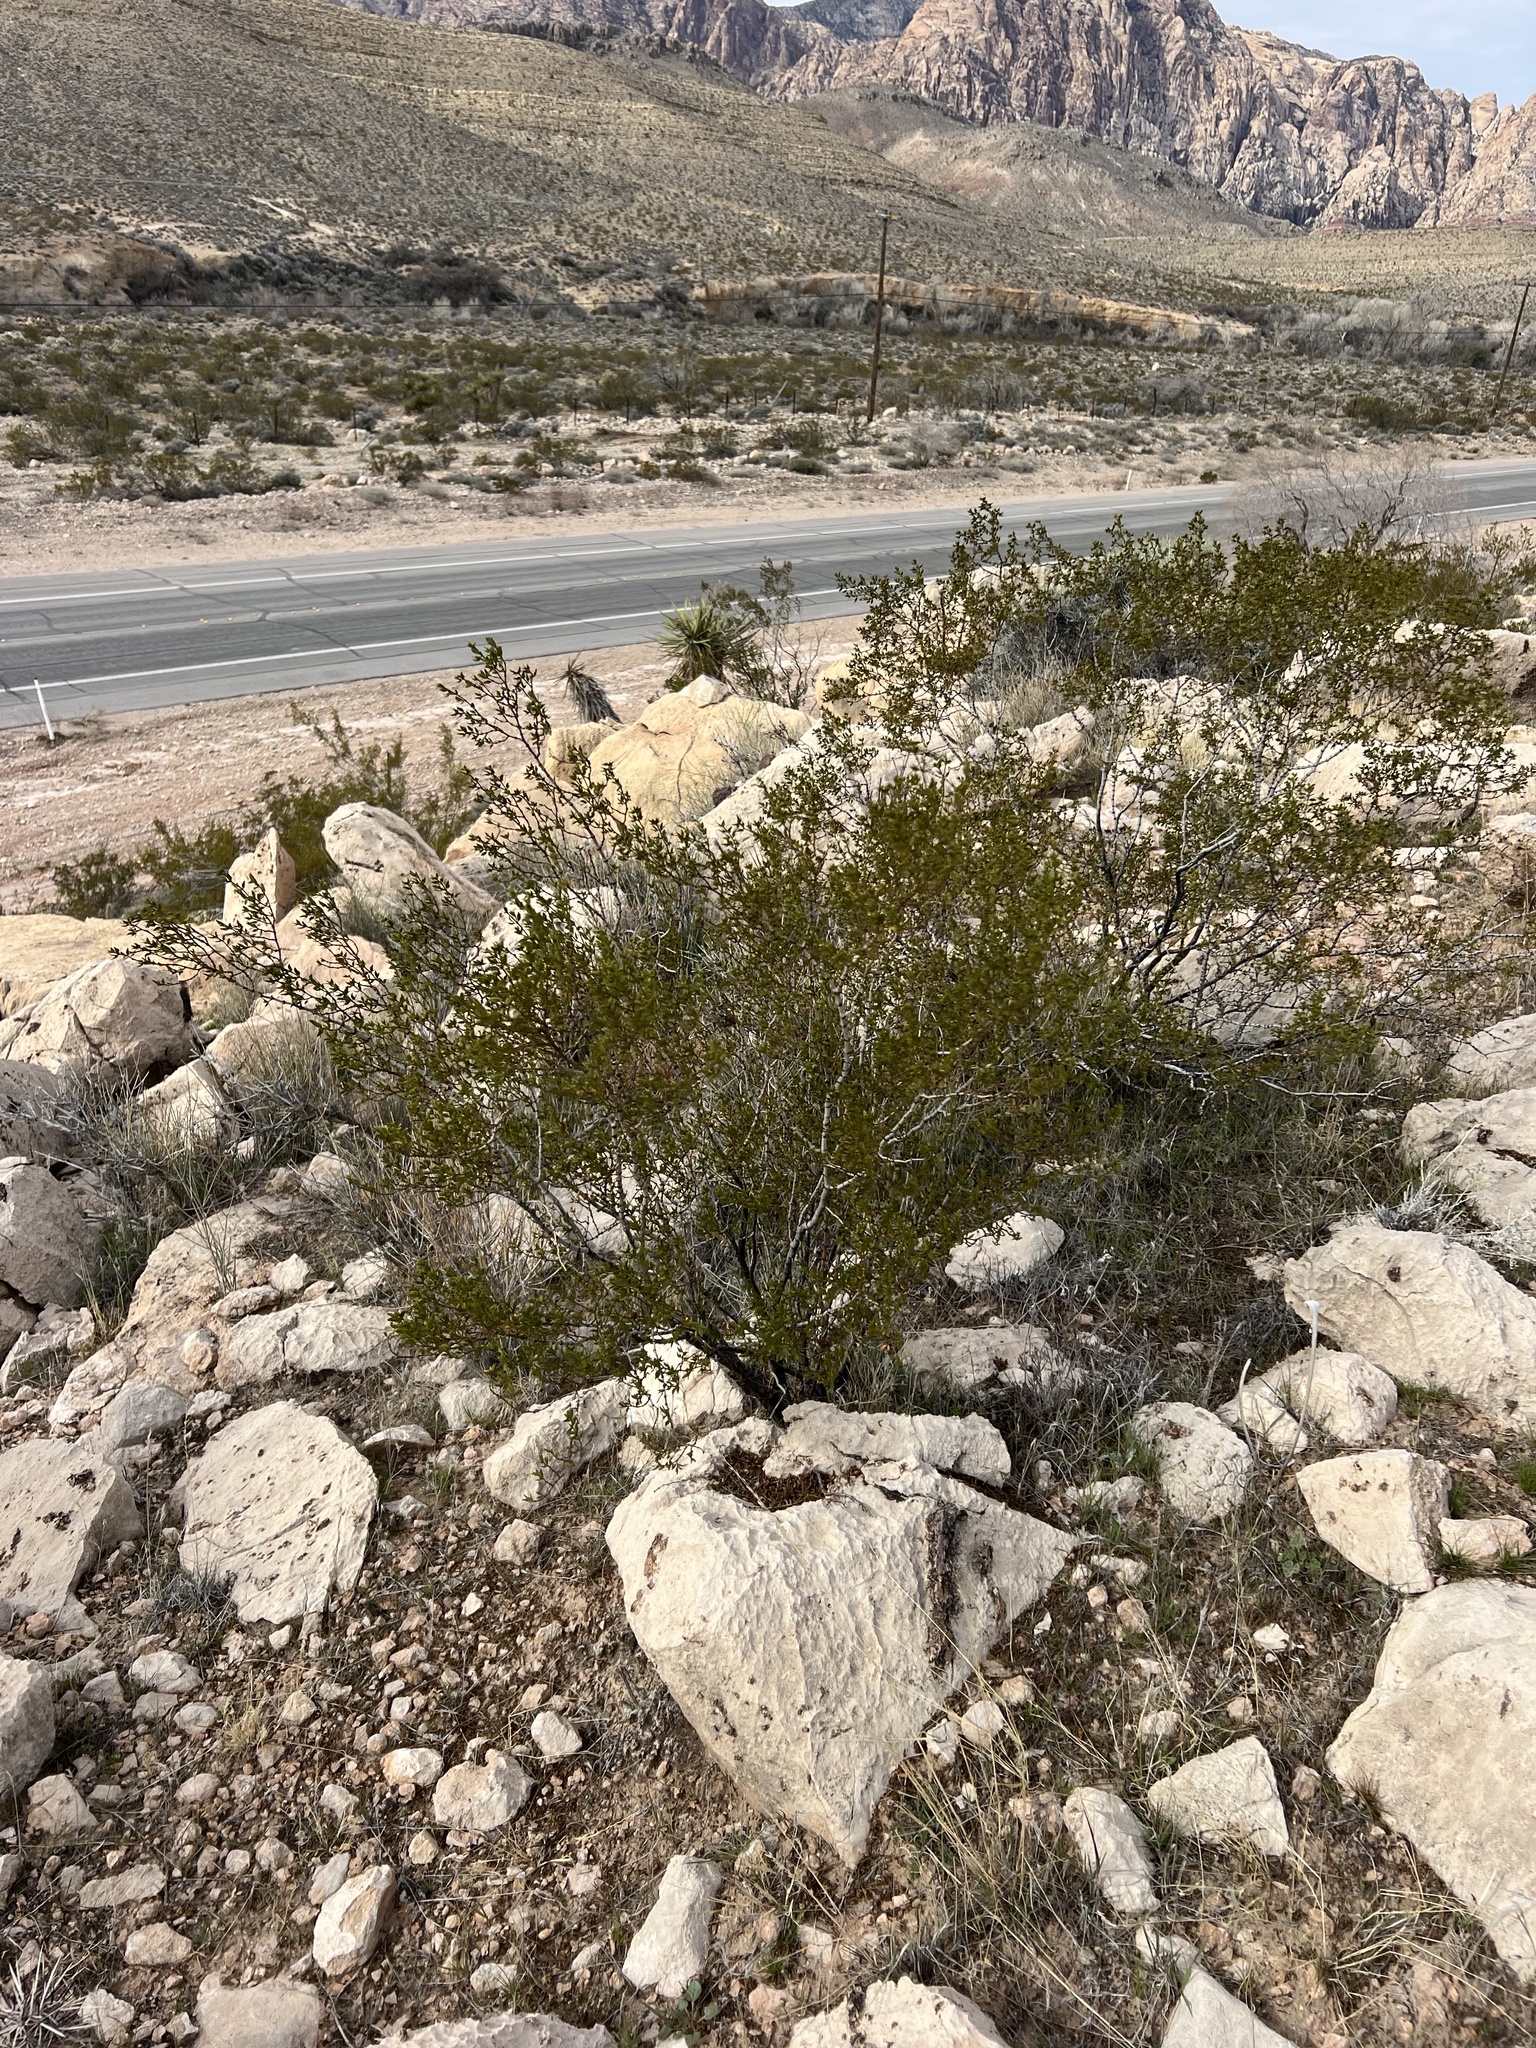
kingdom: Plantae
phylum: Tracheophyta
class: Magnoliopsida
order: Zygophyllales
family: Zygophyllaceae
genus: Larrea
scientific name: Larrea tridentata
